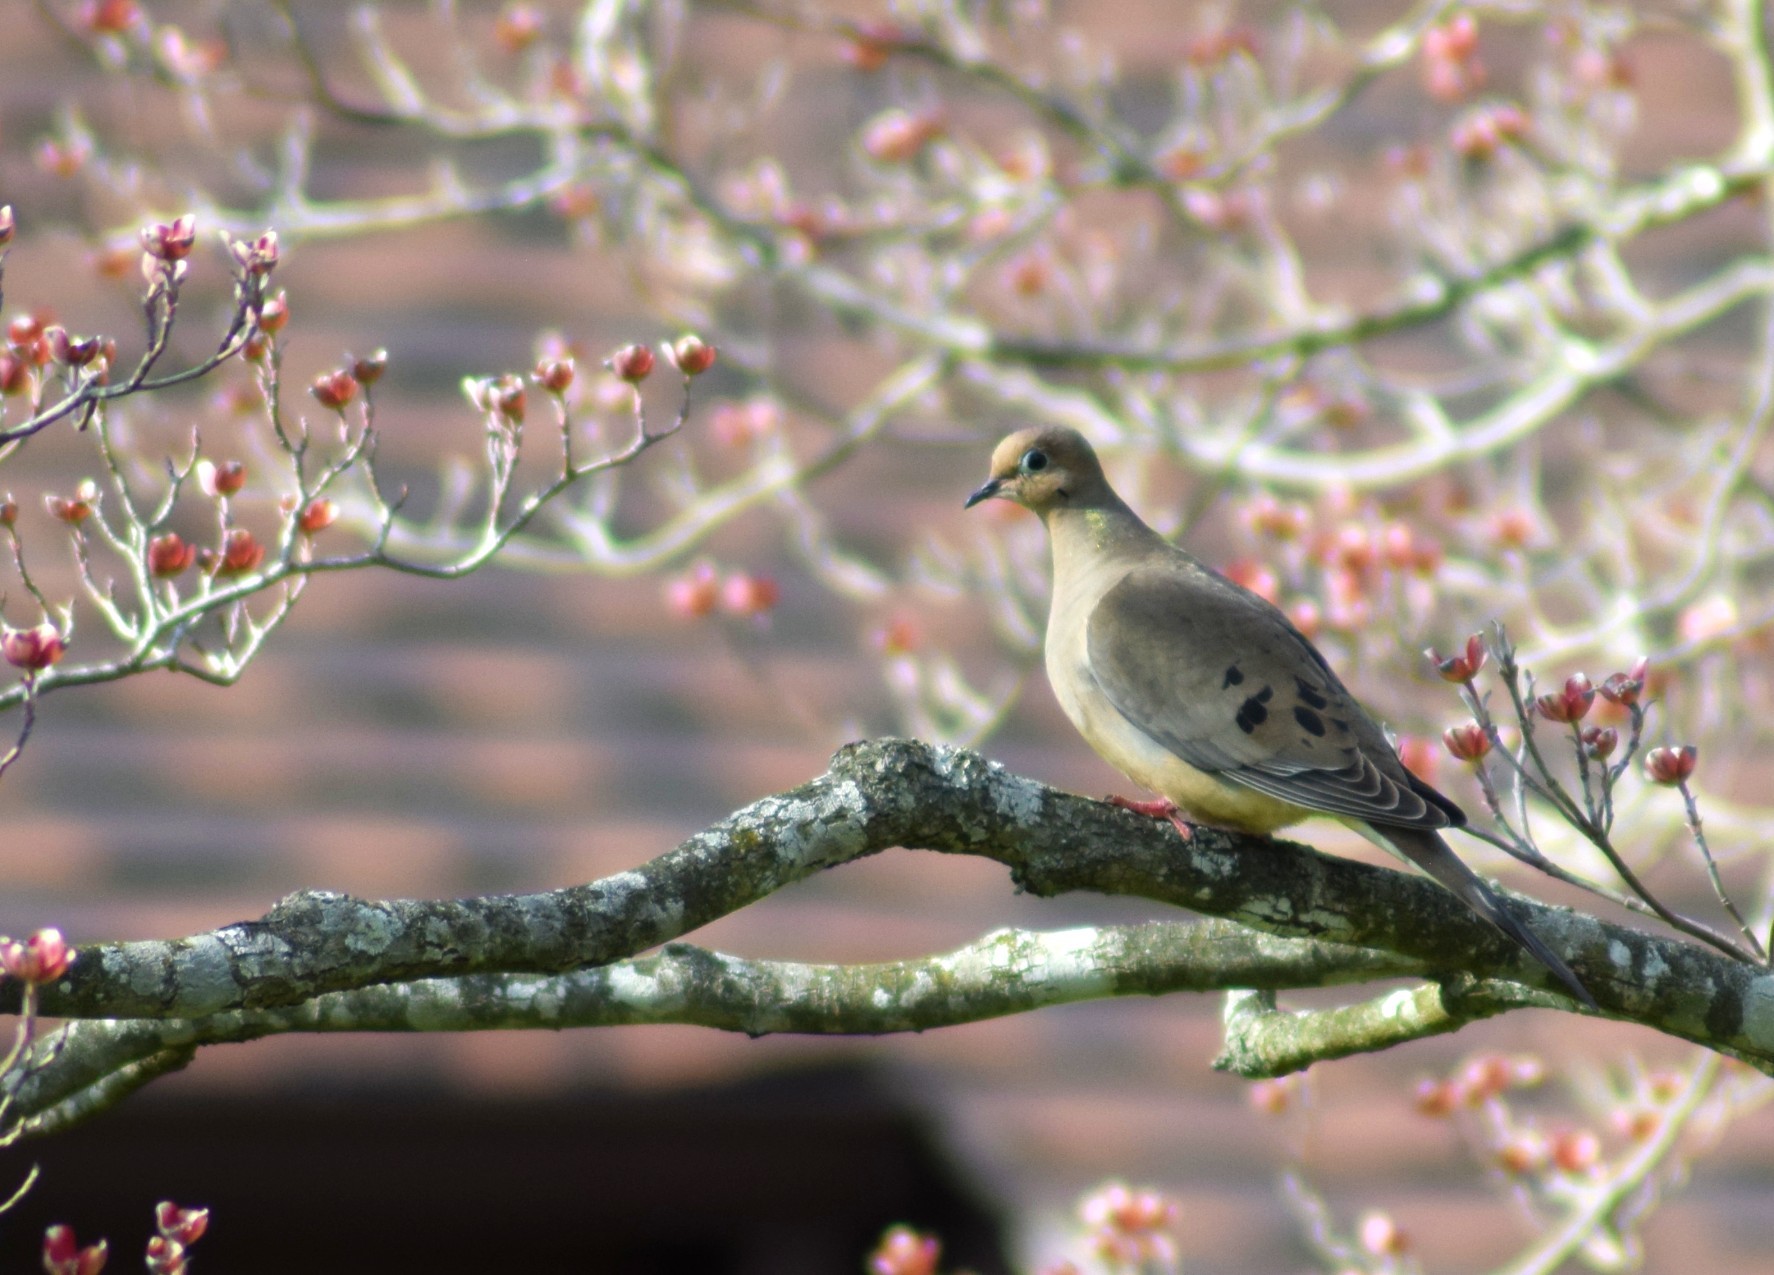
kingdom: Animalia
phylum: Chordata
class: Aves
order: Columbiformes
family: Columbidae
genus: Zenaida
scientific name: Zenaida macroura
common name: Mourning dove
